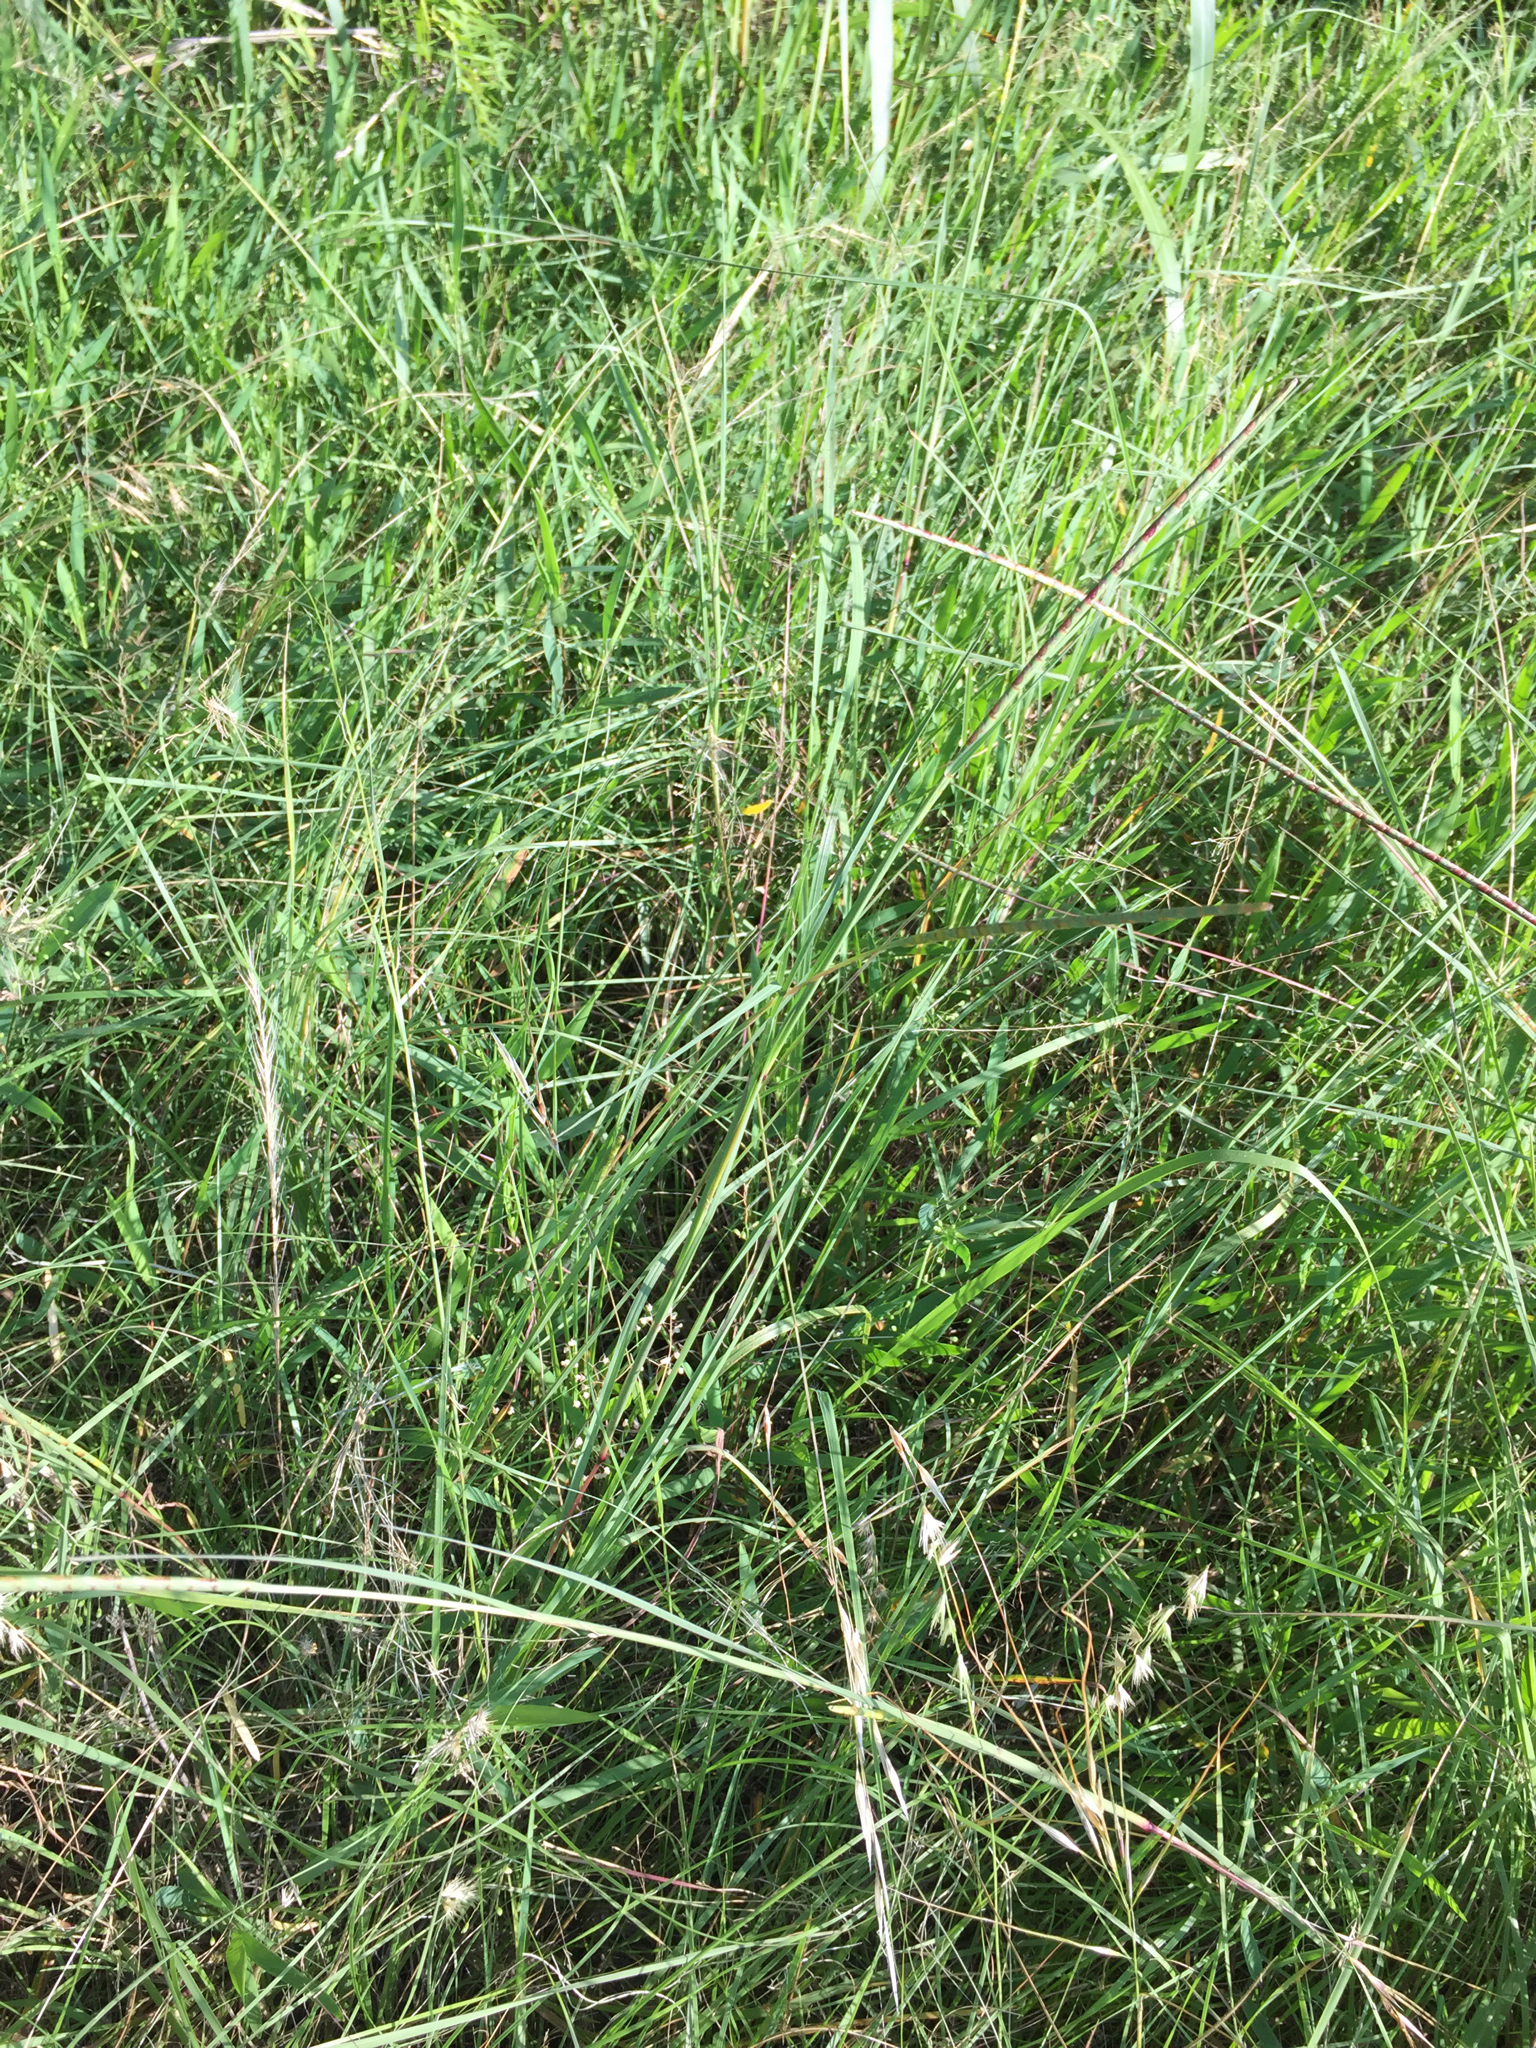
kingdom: Plantae
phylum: Tracheophyta
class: Liliopsida
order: Poales
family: Poaceae
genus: Rottboellia
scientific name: Rottboellia campestris
